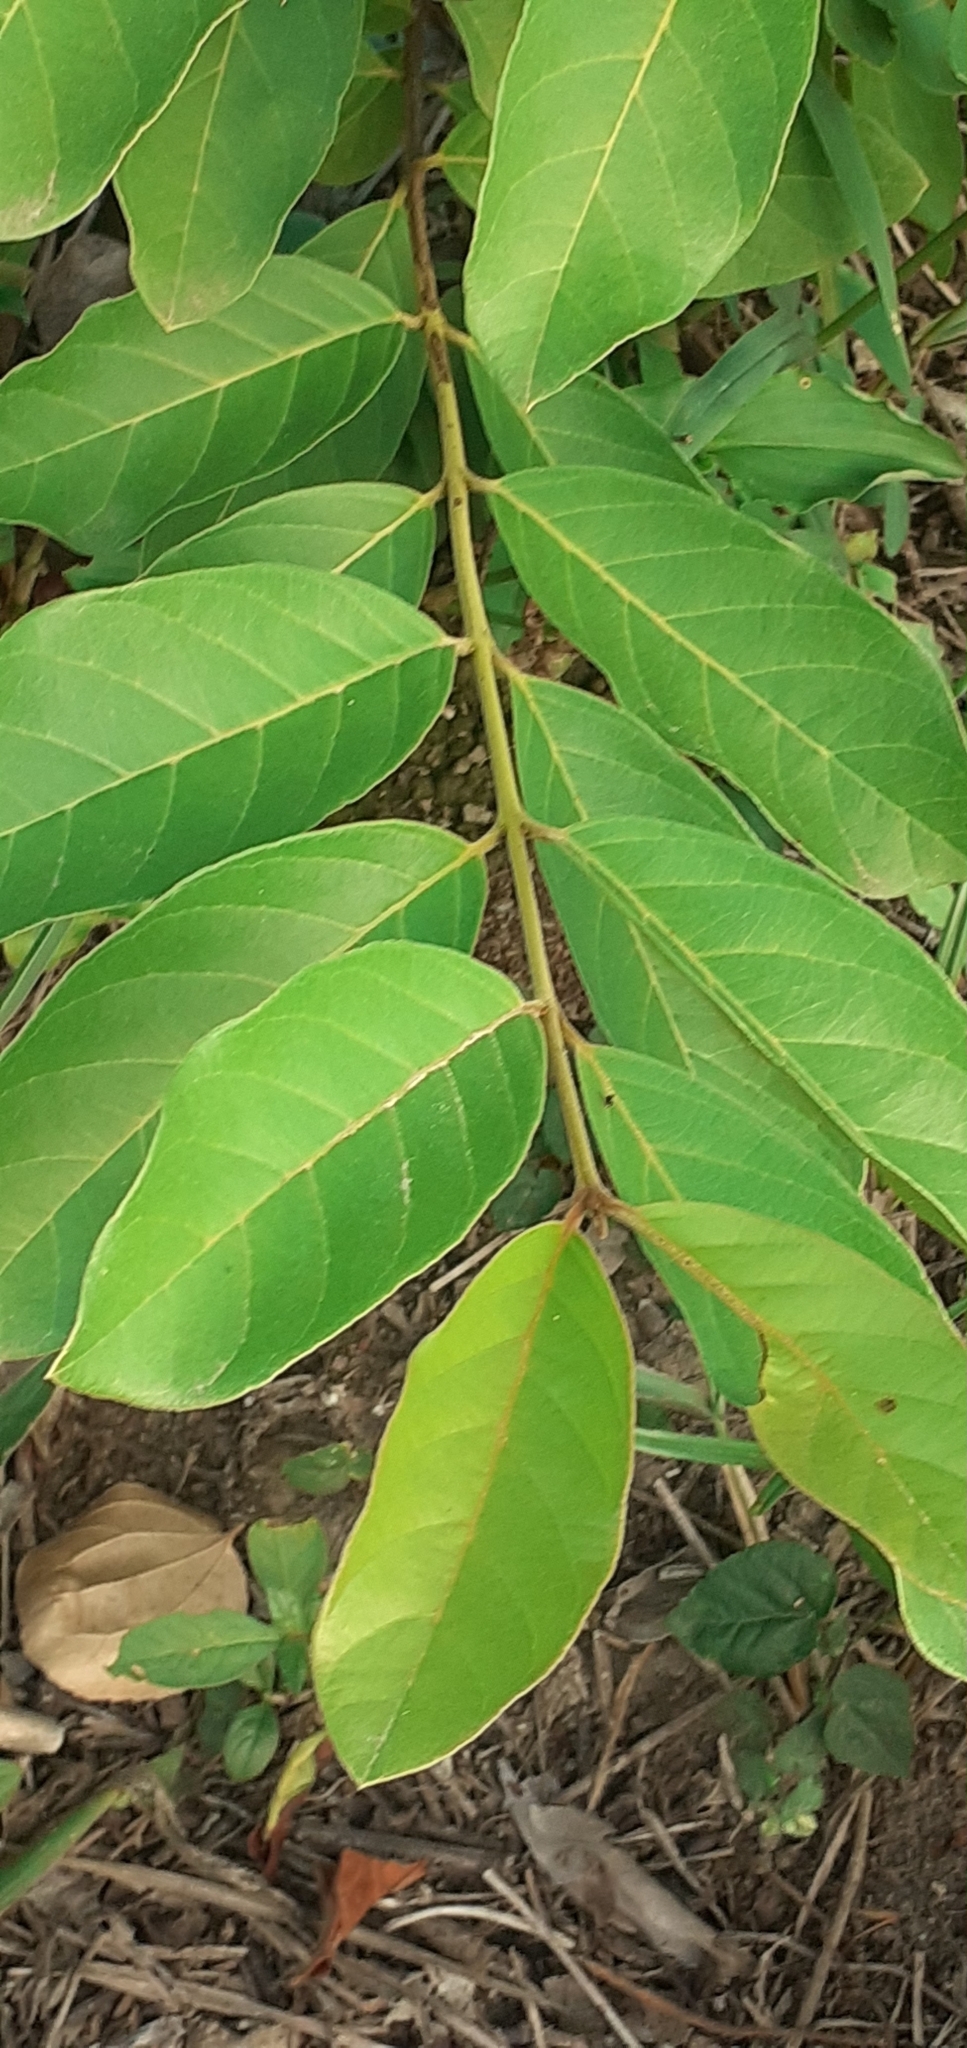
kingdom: Plantae
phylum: Tracheophyta
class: Magnoliopsida
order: Myrtales
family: Myrtaceae
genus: Psidium
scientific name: Psidium guineense
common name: Brazilian guava
